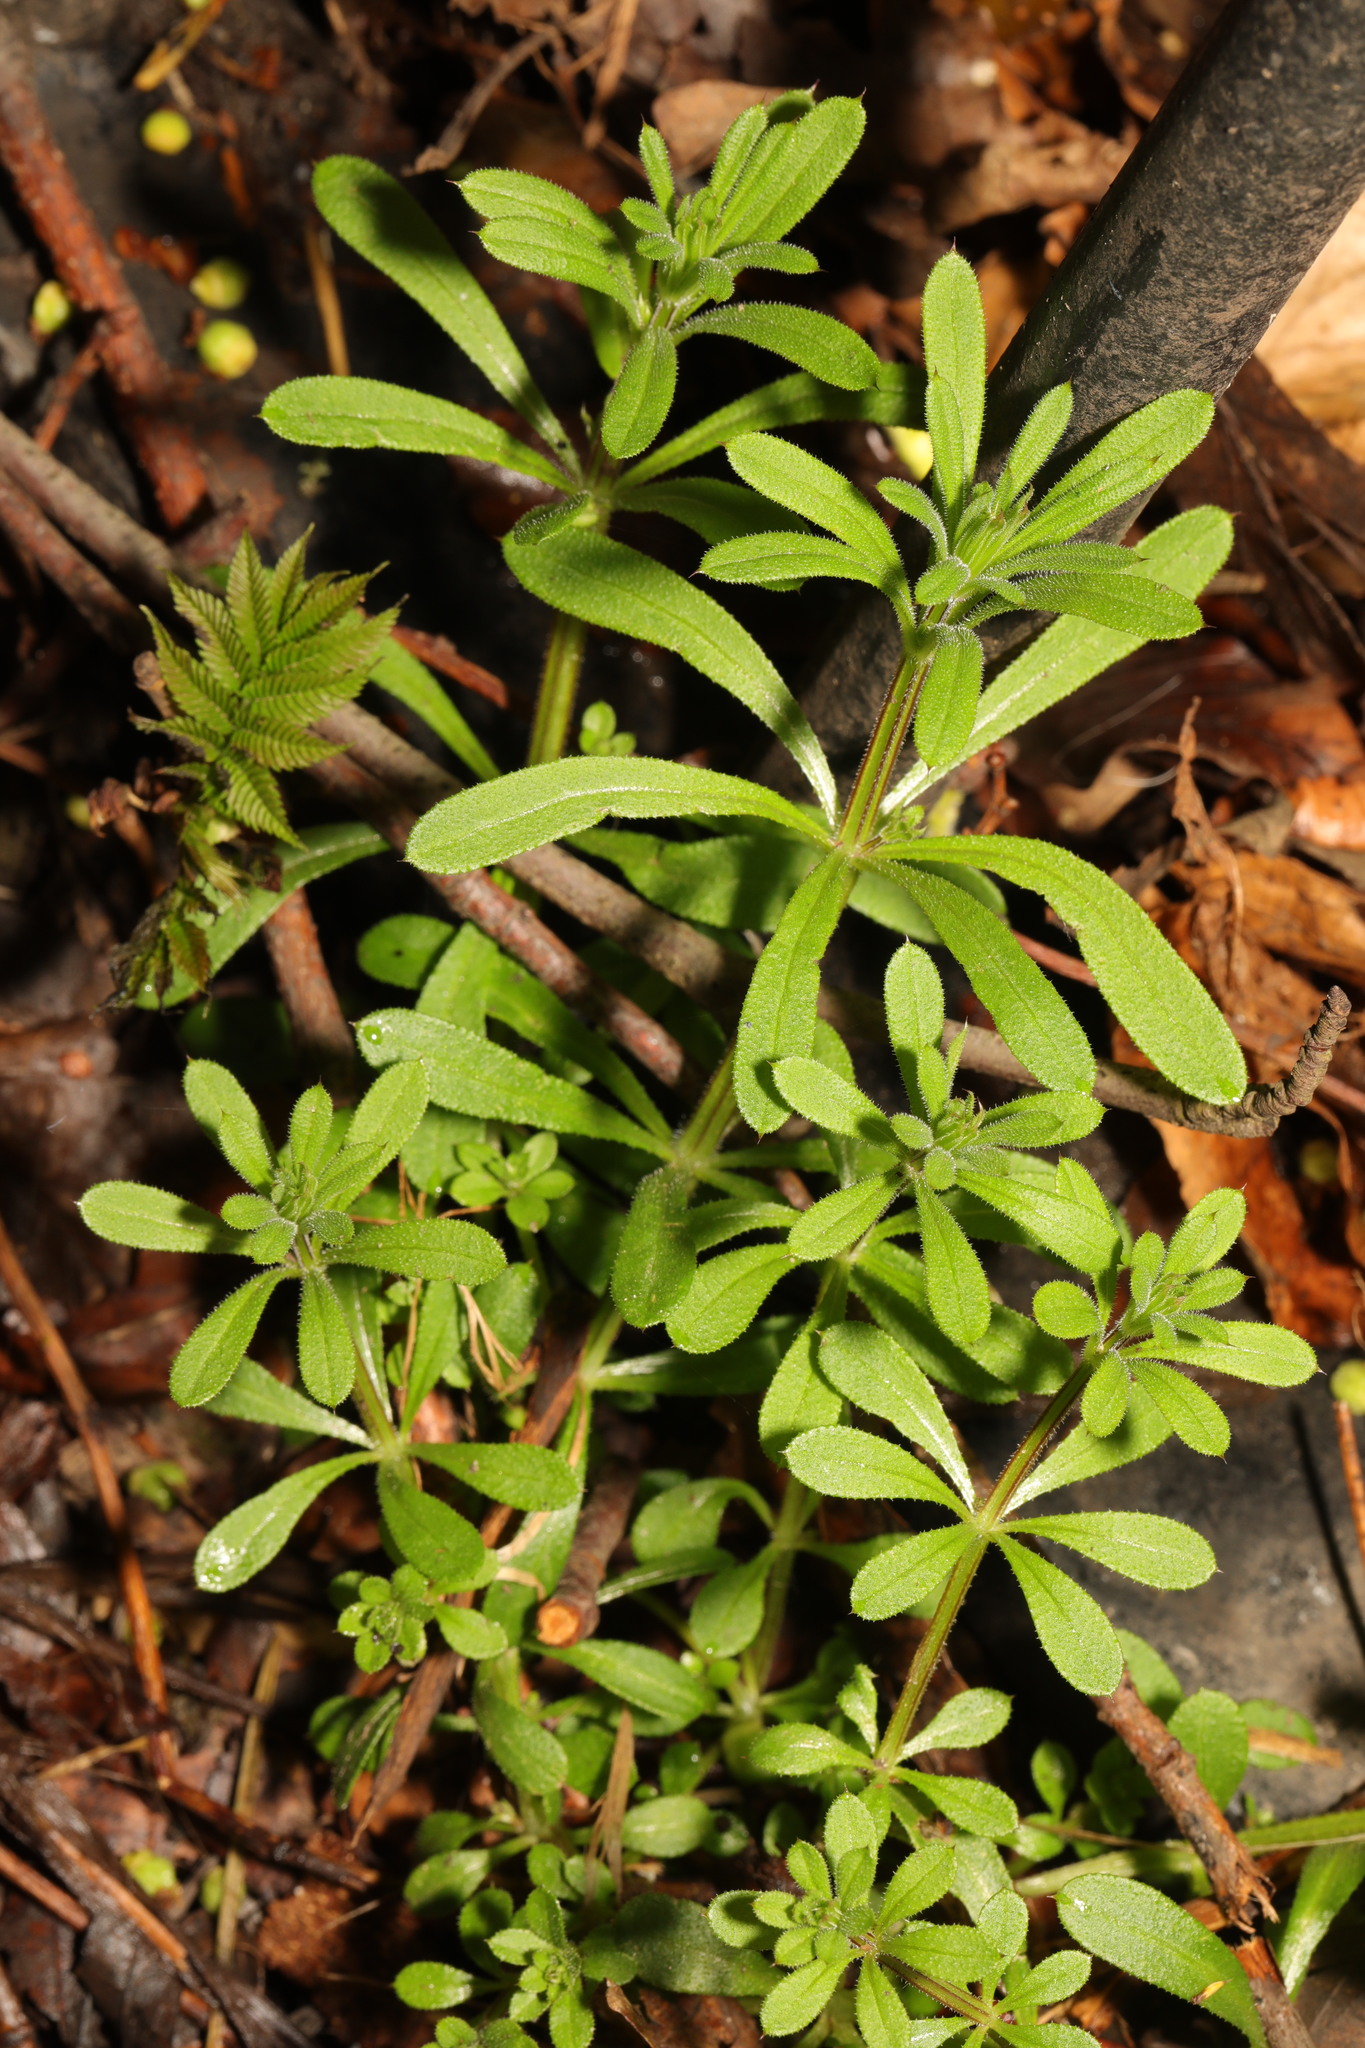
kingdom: Plantae
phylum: Tracheophyta
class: Magnoliopsida
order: Gentianales
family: Rubiaceae
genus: Galium
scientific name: Galium aparine
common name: Cleavers
